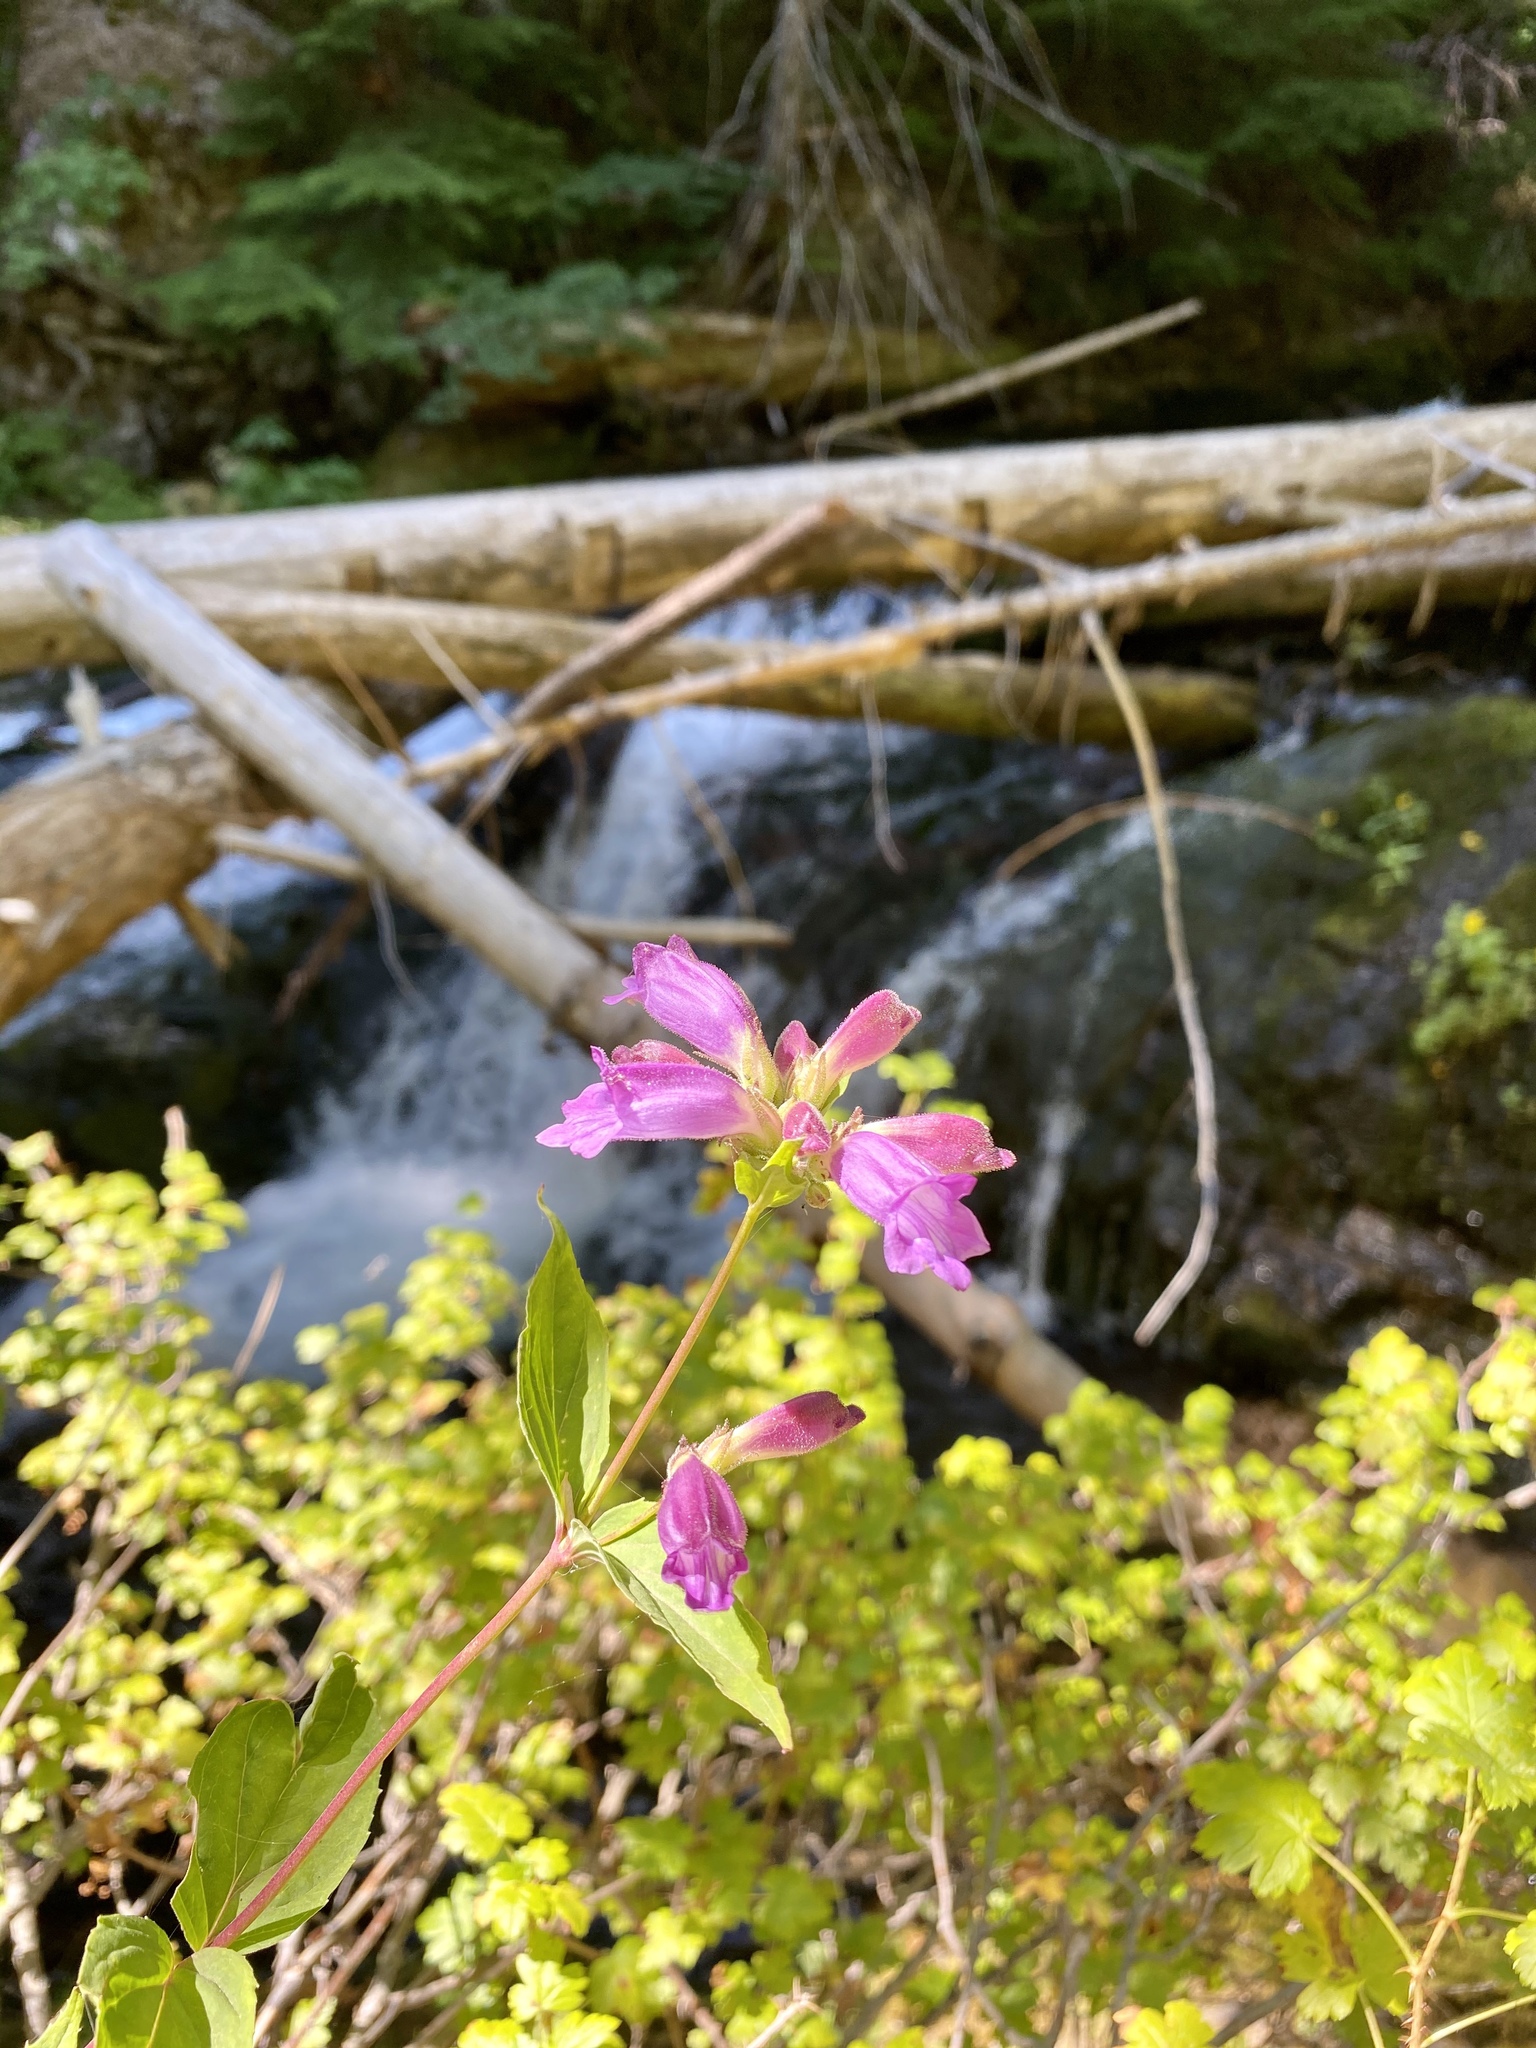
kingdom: Plantae
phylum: Tracheophyta
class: Magnoliopsida
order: Lamiales
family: Plantaginaceae
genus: Nothochelone
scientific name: Nothochelone nemorosa
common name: Woodland beardtongue
